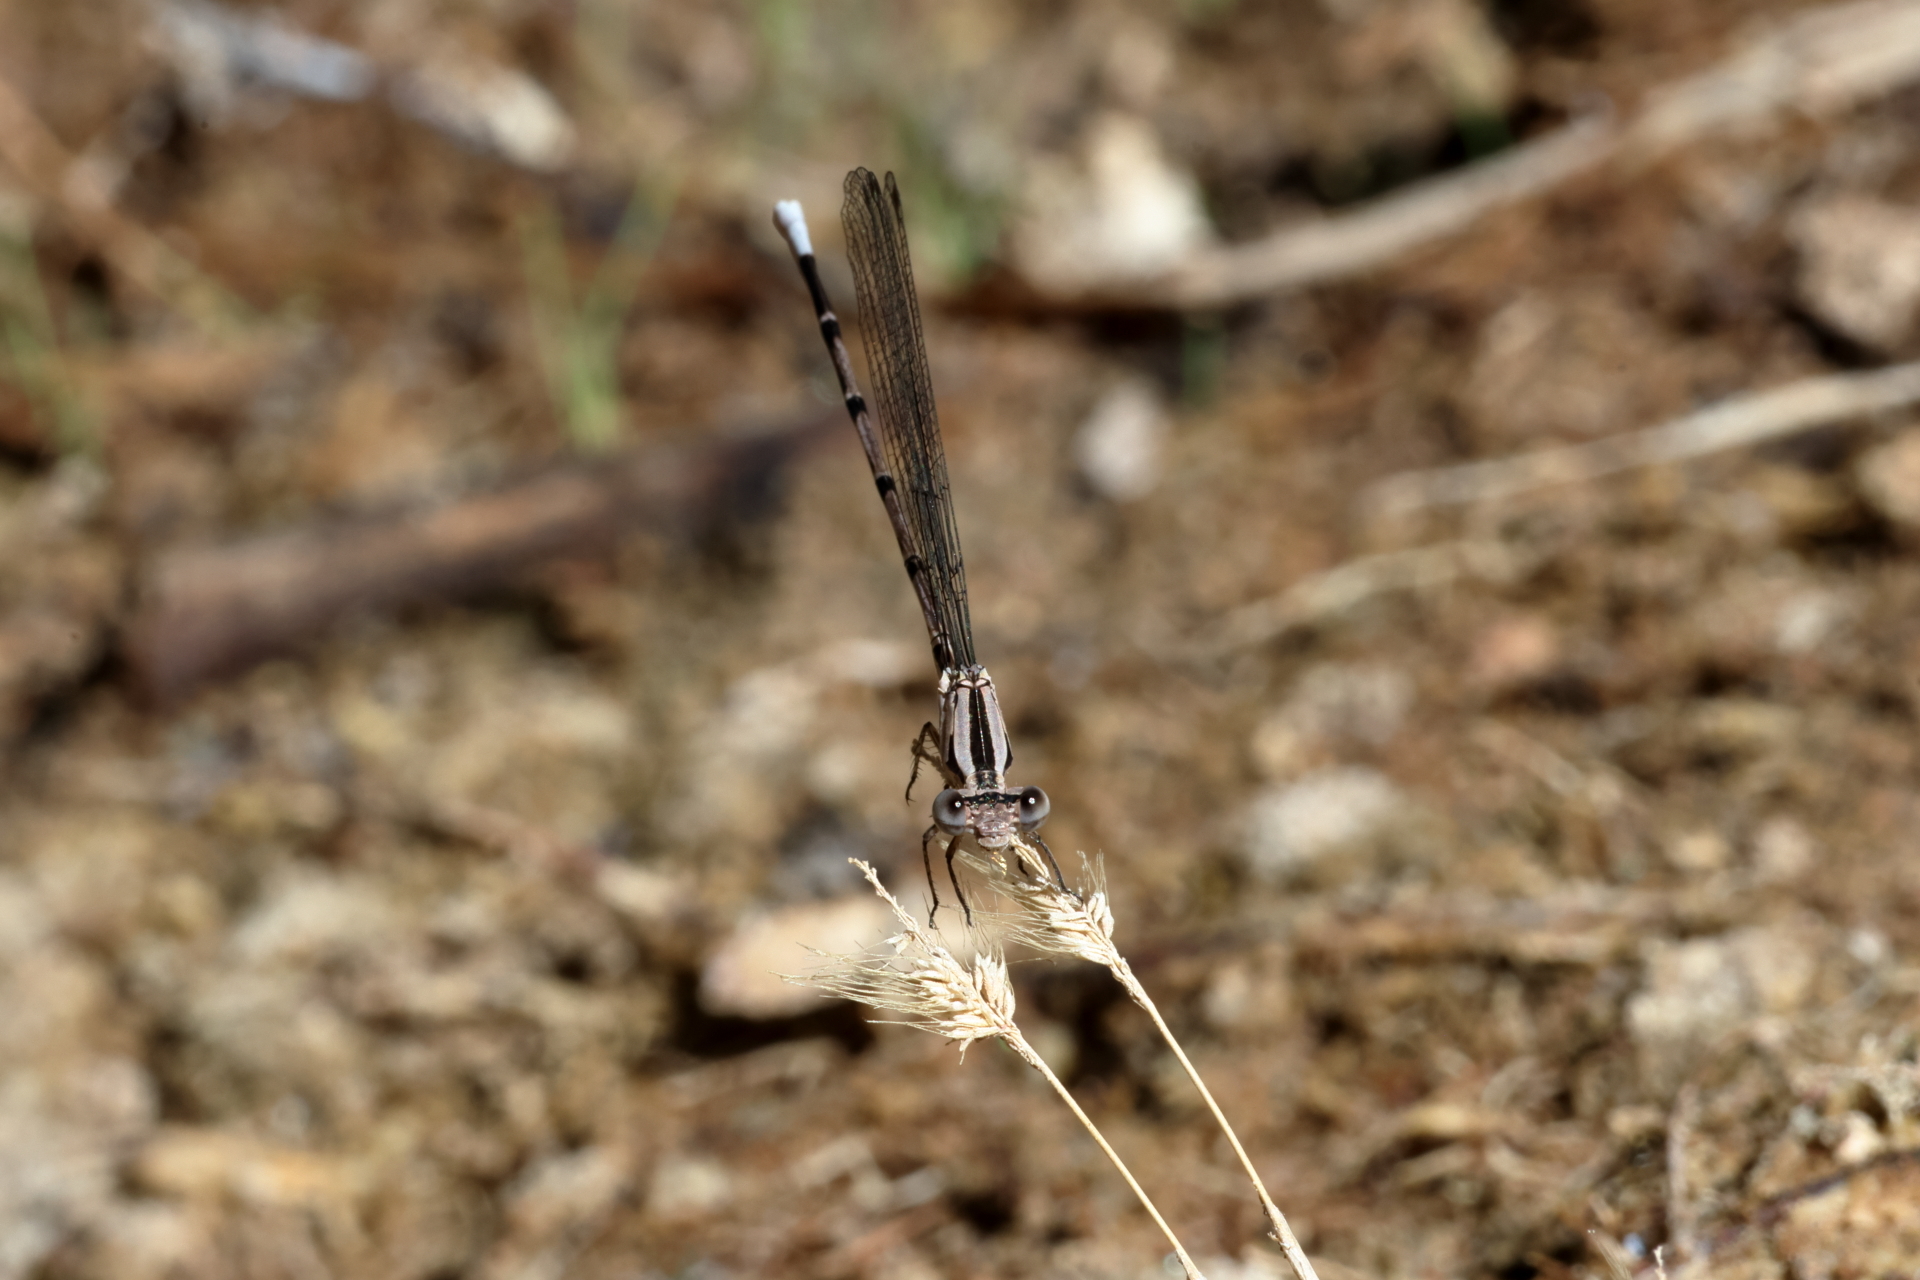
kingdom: Animalia
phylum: Arthropoda
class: Insecta
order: Odonata
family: Coenagrionidae
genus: Argia
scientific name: Argia funebris
